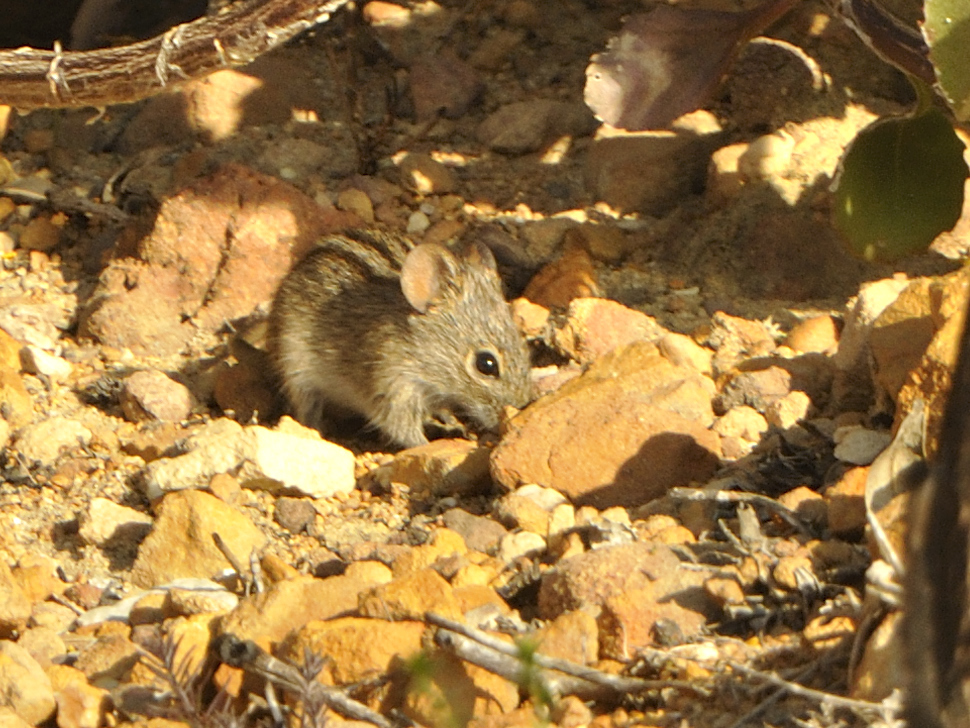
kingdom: Animalia
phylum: Chordata
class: Mammalia
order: Rodentia
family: Muridae
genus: Rhabdomys
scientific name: Rhabdomys pumilio
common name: Xeric four-striped grass rat
